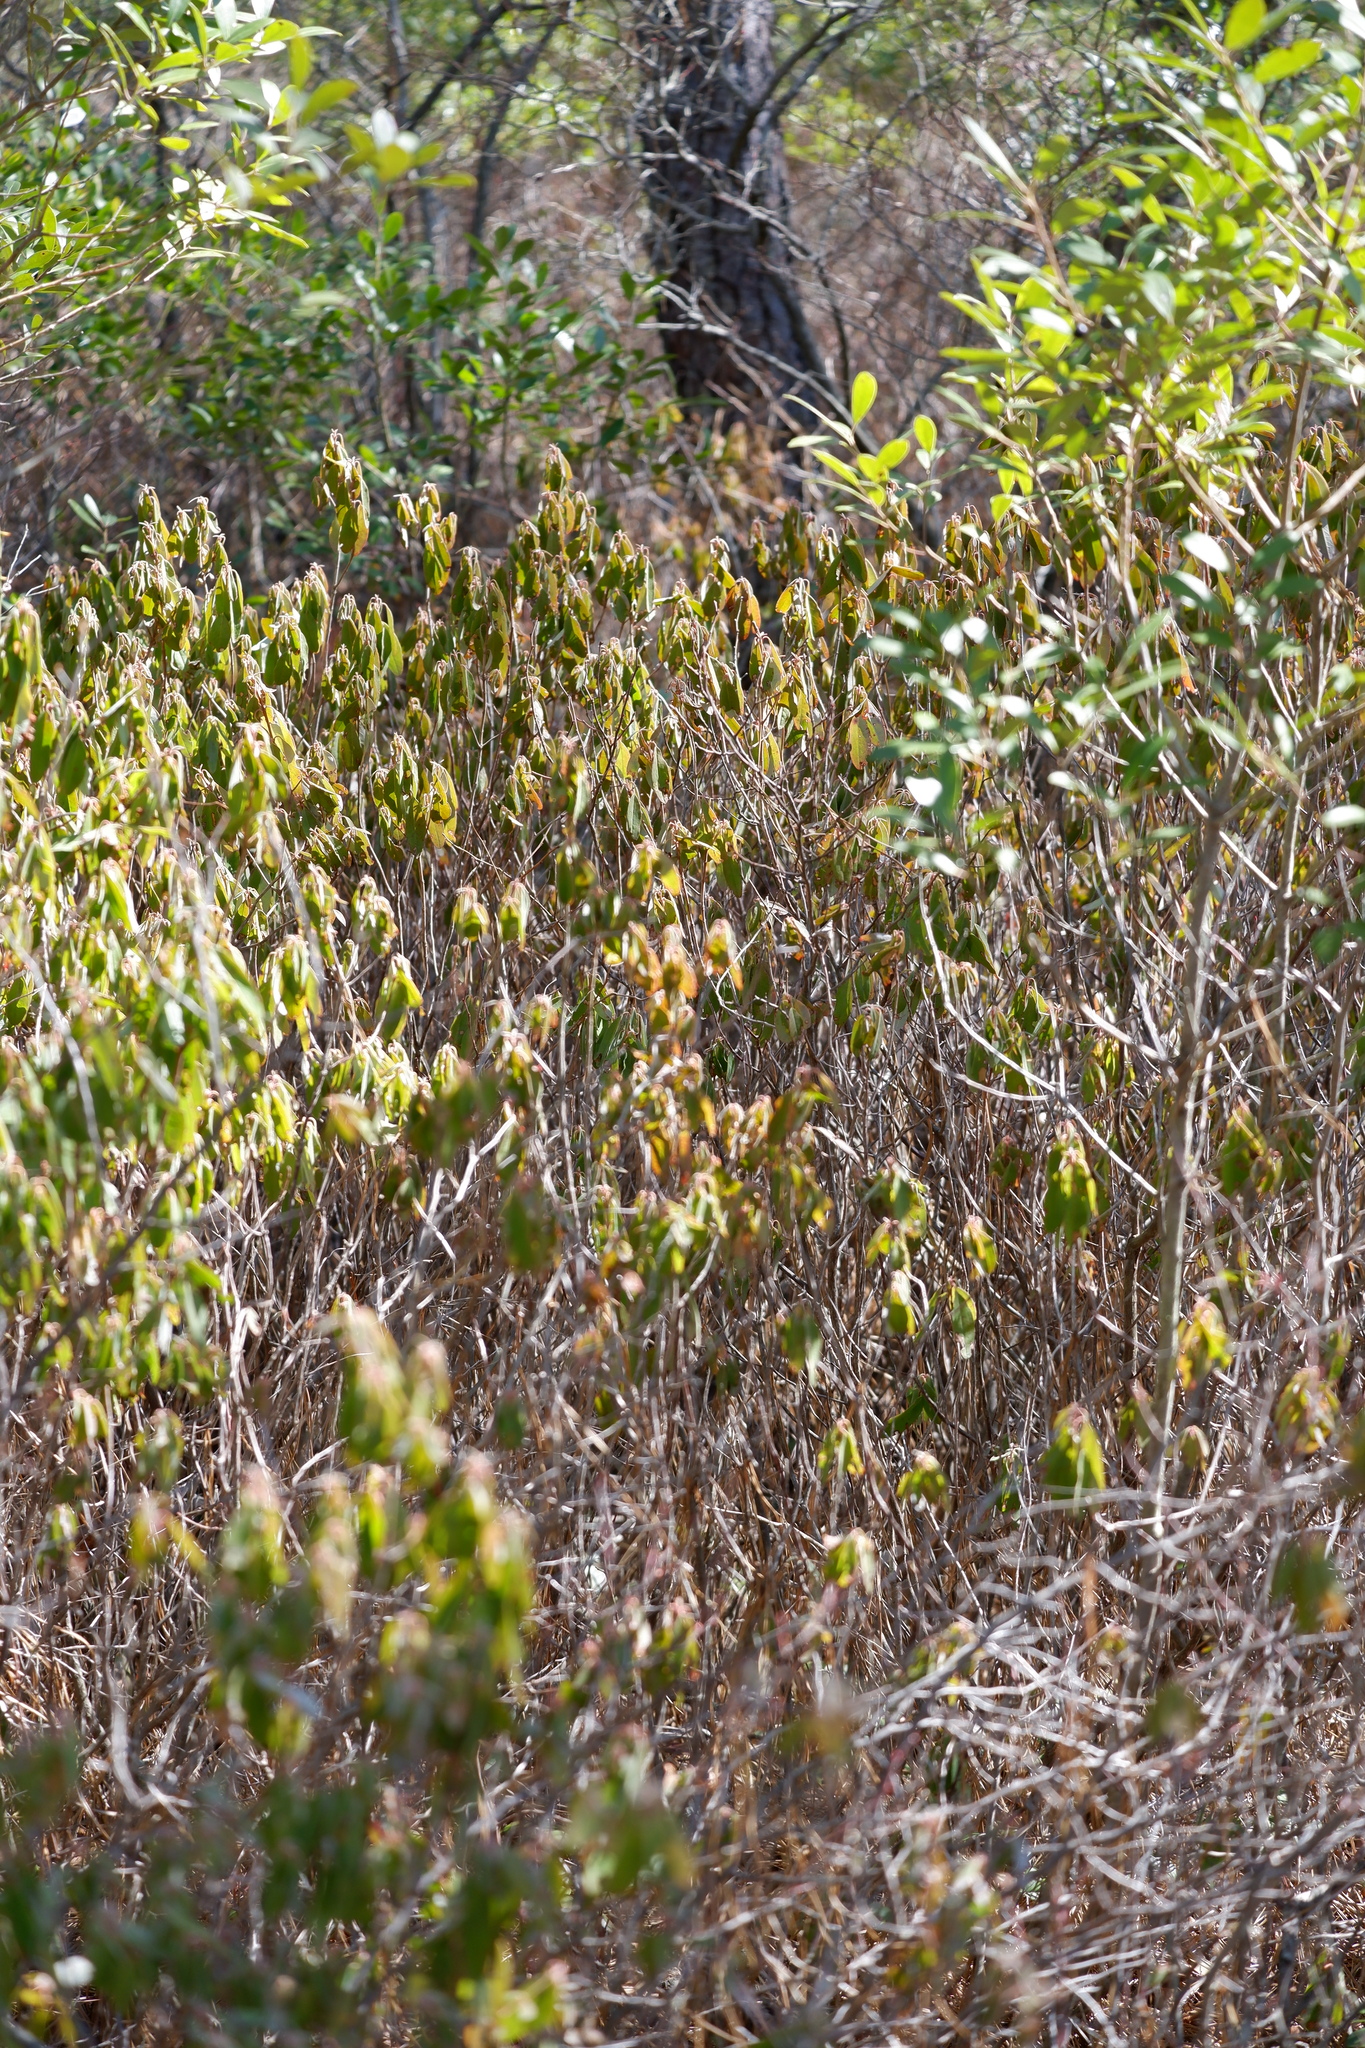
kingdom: Plantae
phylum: Tracheophyta
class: Magnoliopsida
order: Ericales
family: Ericaceae
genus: Kalmia
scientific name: Kalmia angustifolia
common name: Sheep-laurel
